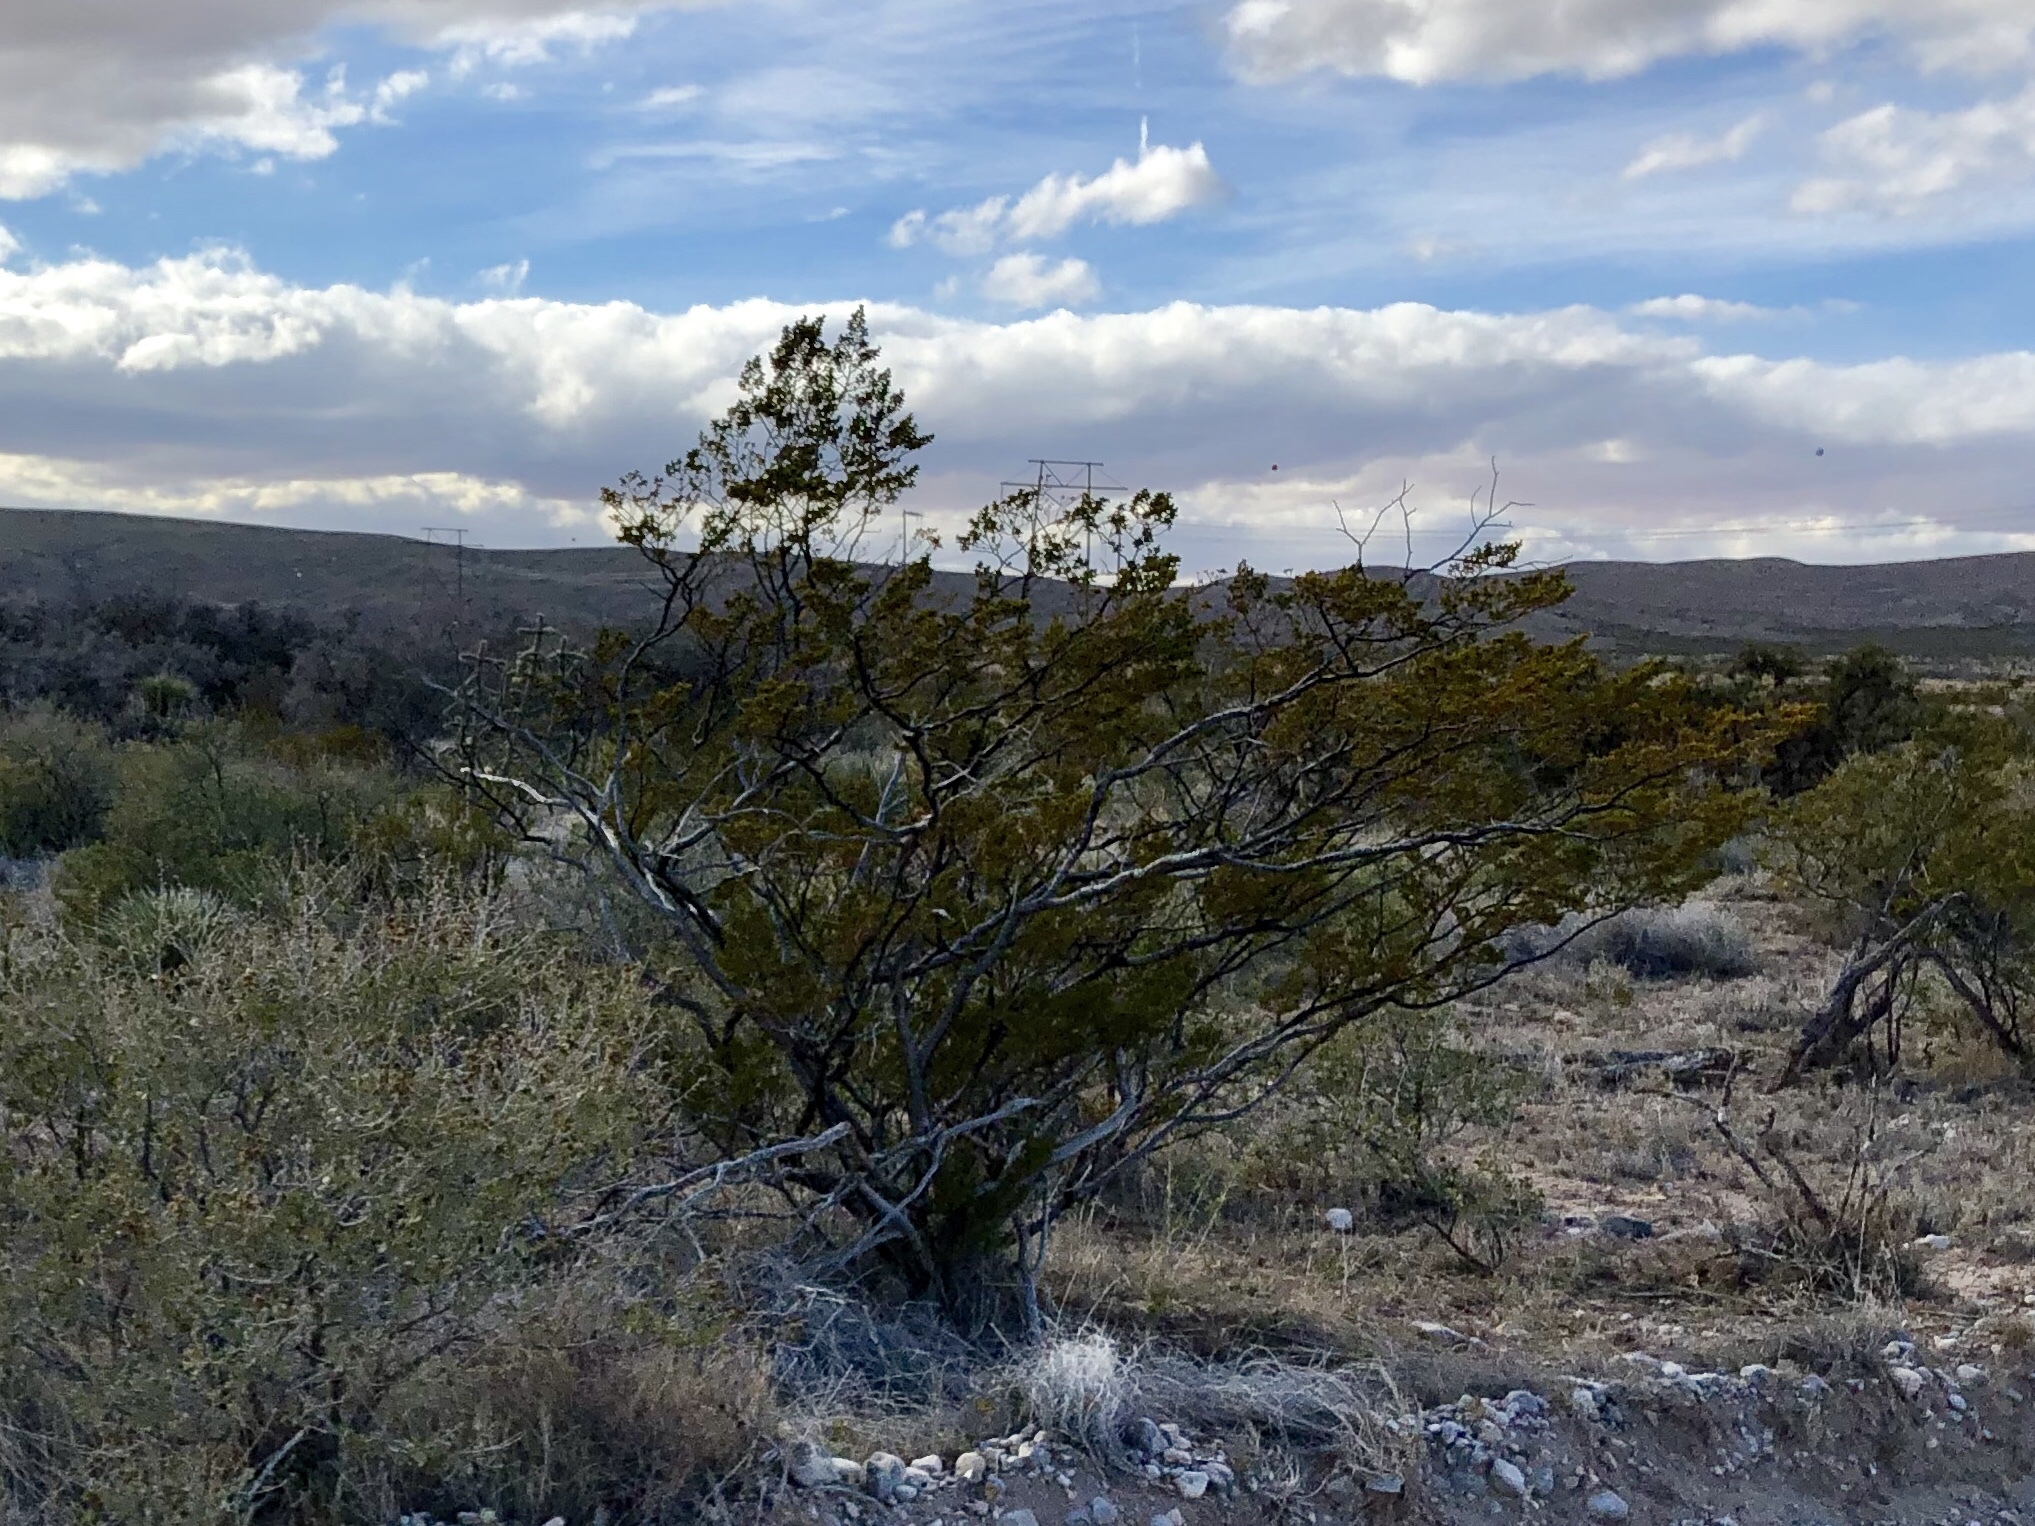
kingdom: Plantae
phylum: Tracheophyta
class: Magnoliopsida
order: Zygophyllales
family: Zygophyllaceae
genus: Larrea
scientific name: Larrea tridentata
